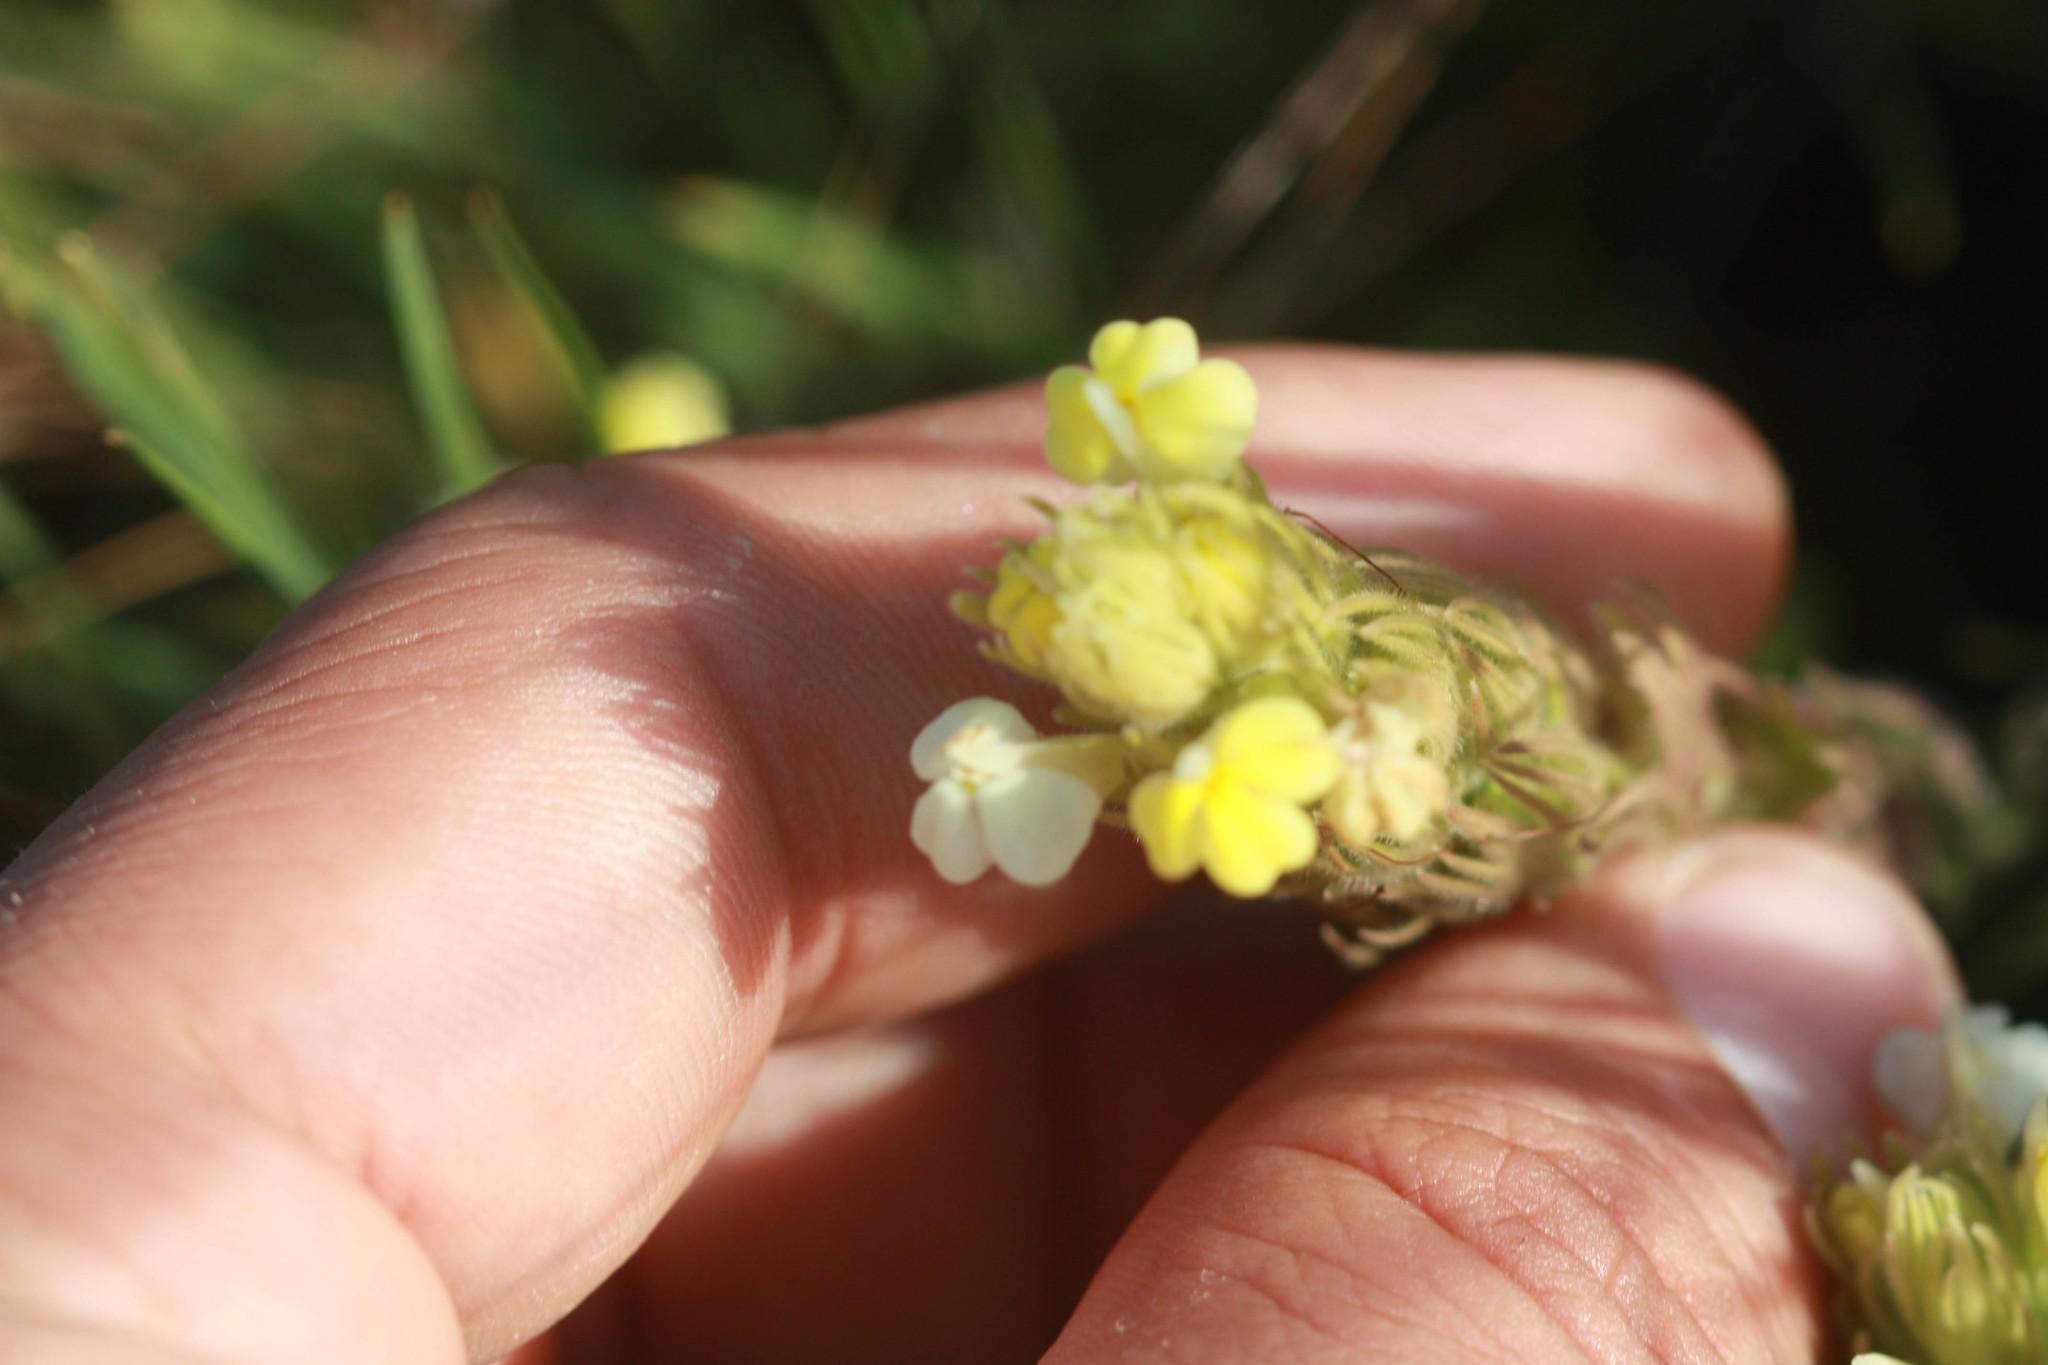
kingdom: Plantae
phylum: Tracheophyta
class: Magnoliopsida
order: Lamiales
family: Orobanchaceae
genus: Castilleja
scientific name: Castilleja rubicundula
